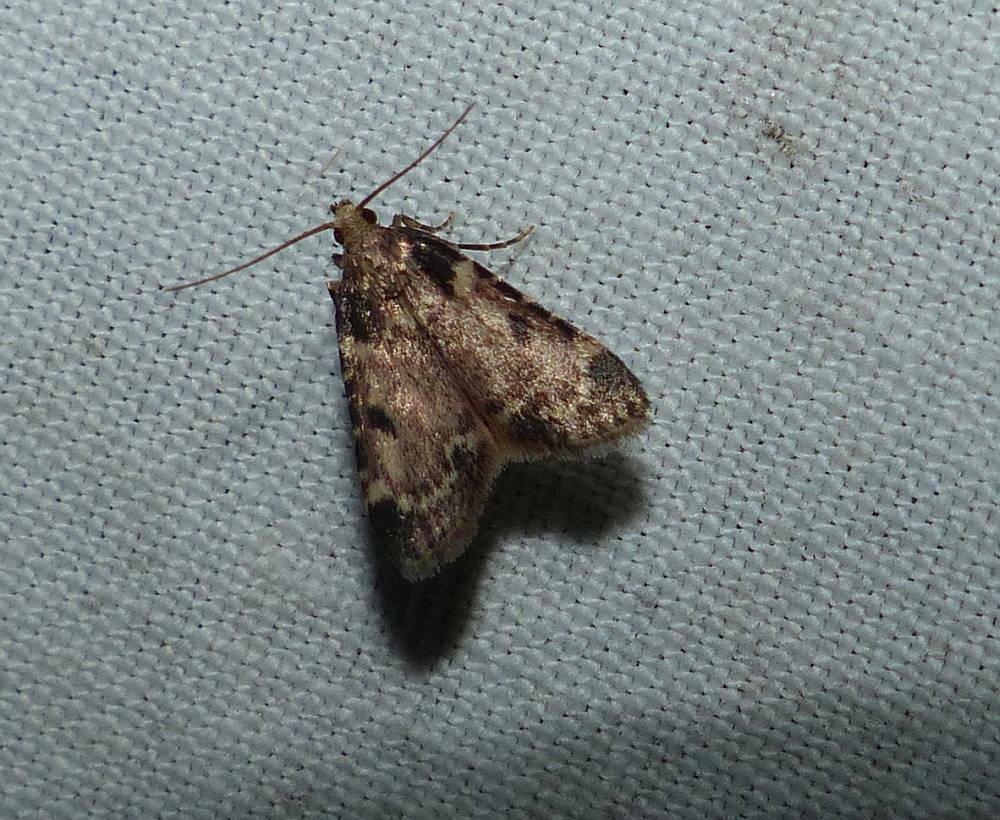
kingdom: Animalia
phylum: Arthropoda
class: Insecta
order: Lepidoptera
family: Pyralidae
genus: Aglossa
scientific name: Aglossa costiferalis
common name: Calico pyralid moth
